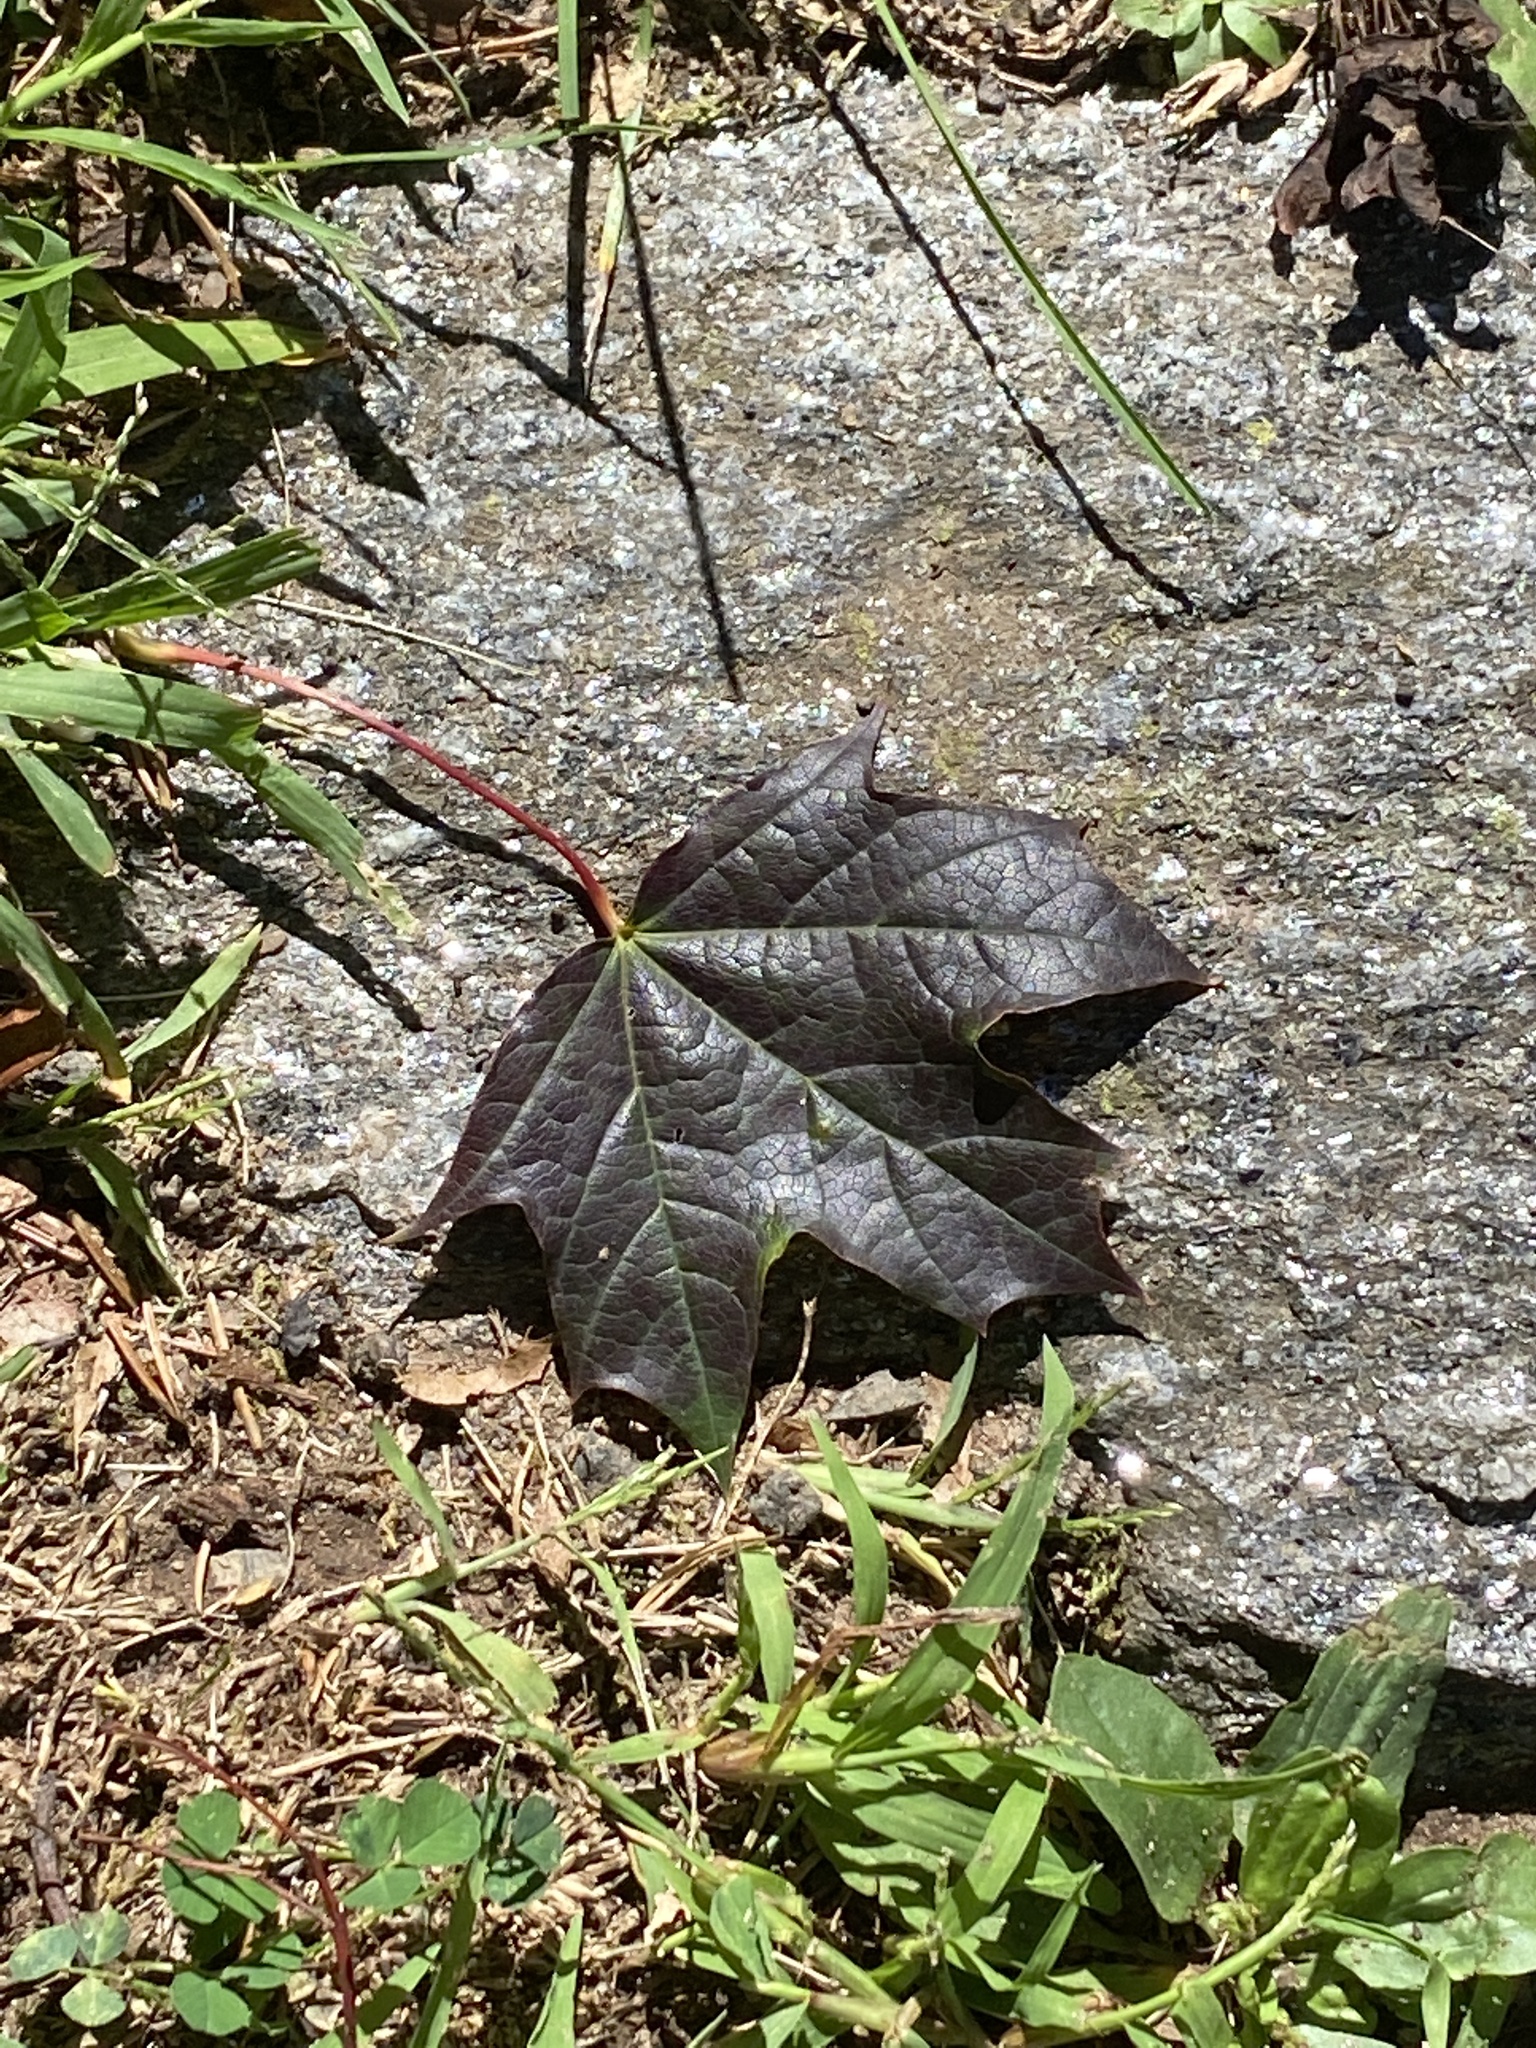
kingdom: Plantae
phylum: Tracheophyta
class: Magnoliopsida
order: Sapindales
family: Sapindaceae
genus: Acer
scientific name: Acer platanoides
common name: Norway maple
